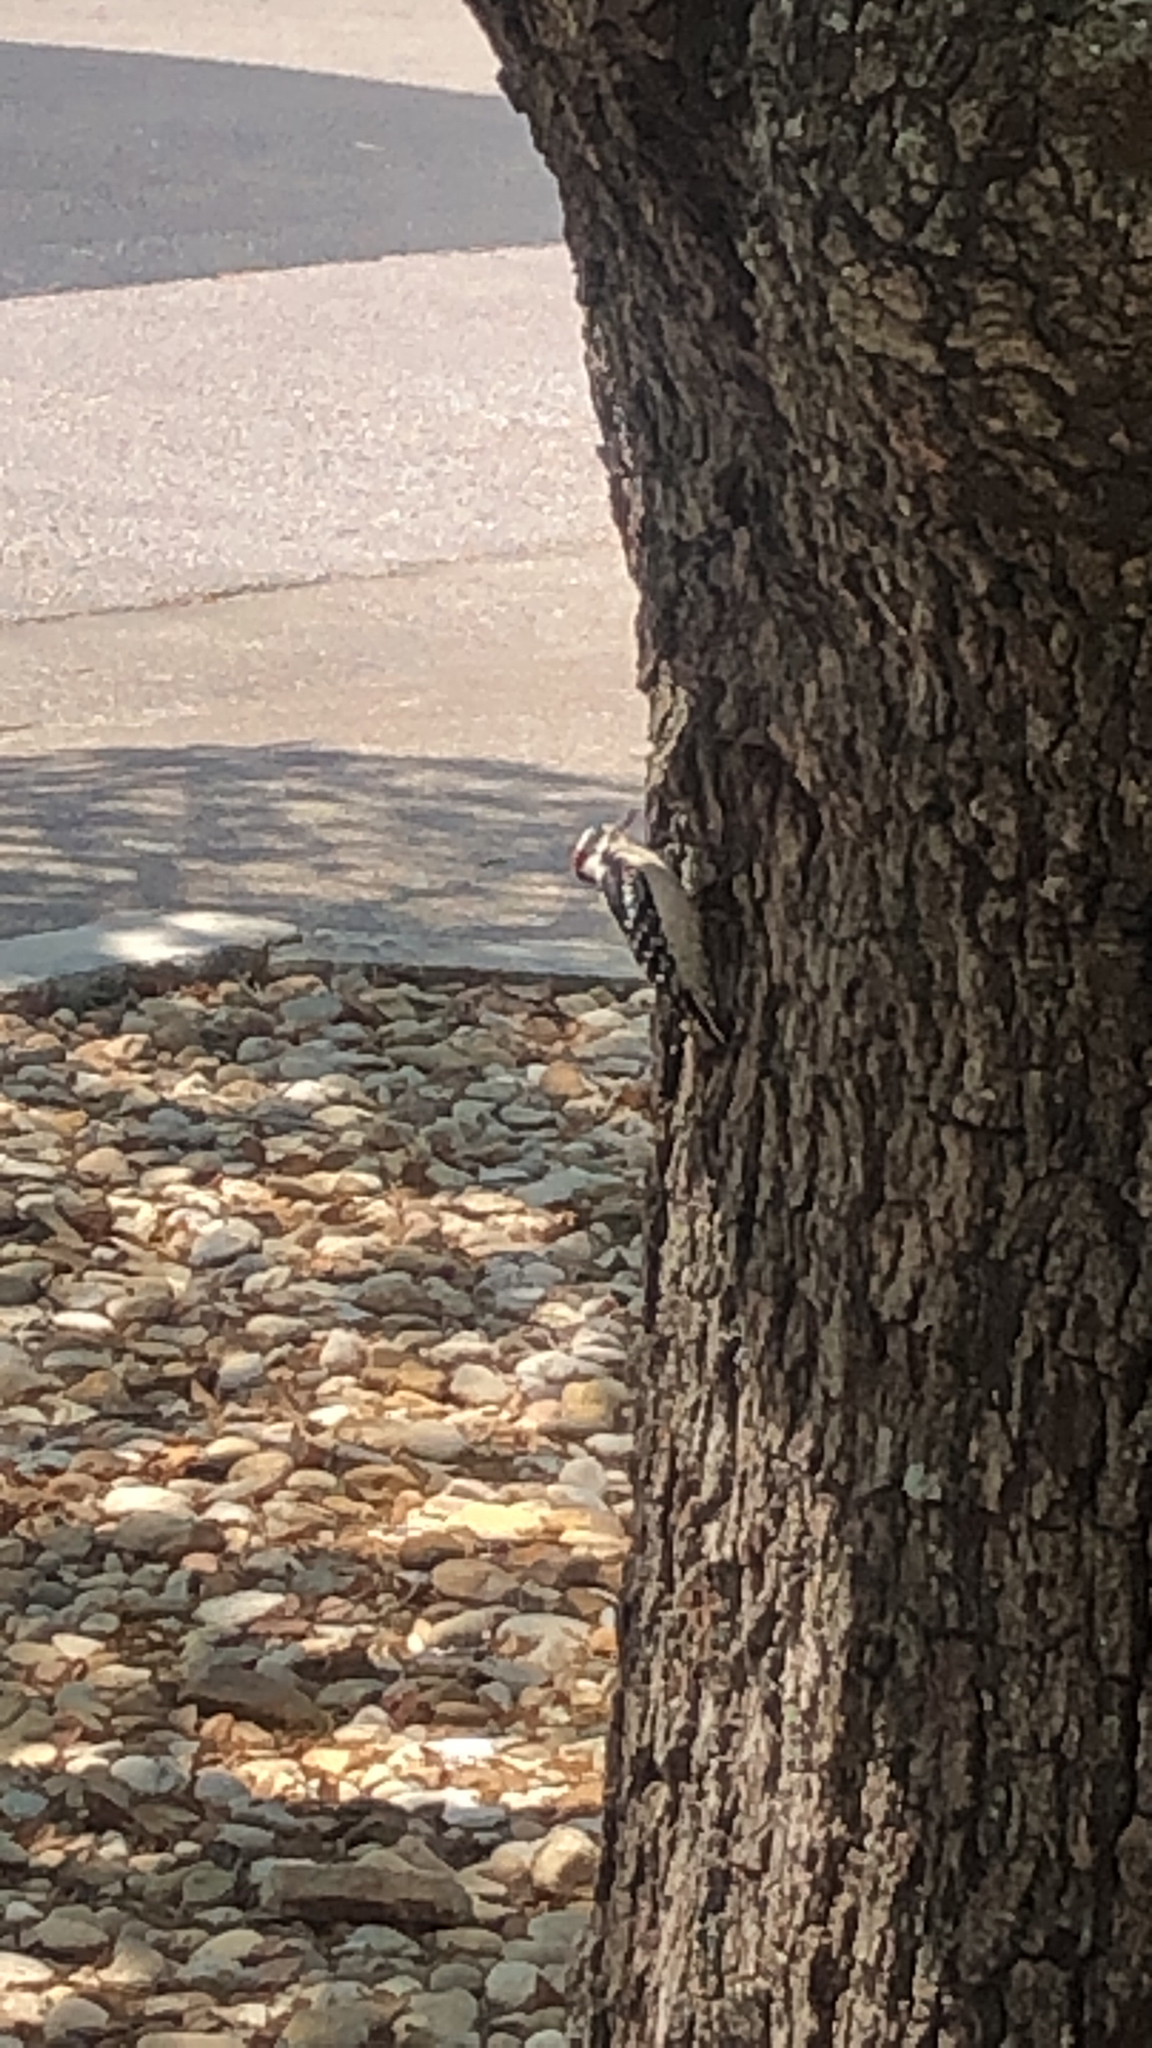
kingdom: Animalia
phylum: Chordata
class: Aves
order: Piciformes
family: Picidae
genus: Dryobates
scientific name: Dryobates pubescens
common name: Downy woodpecker
